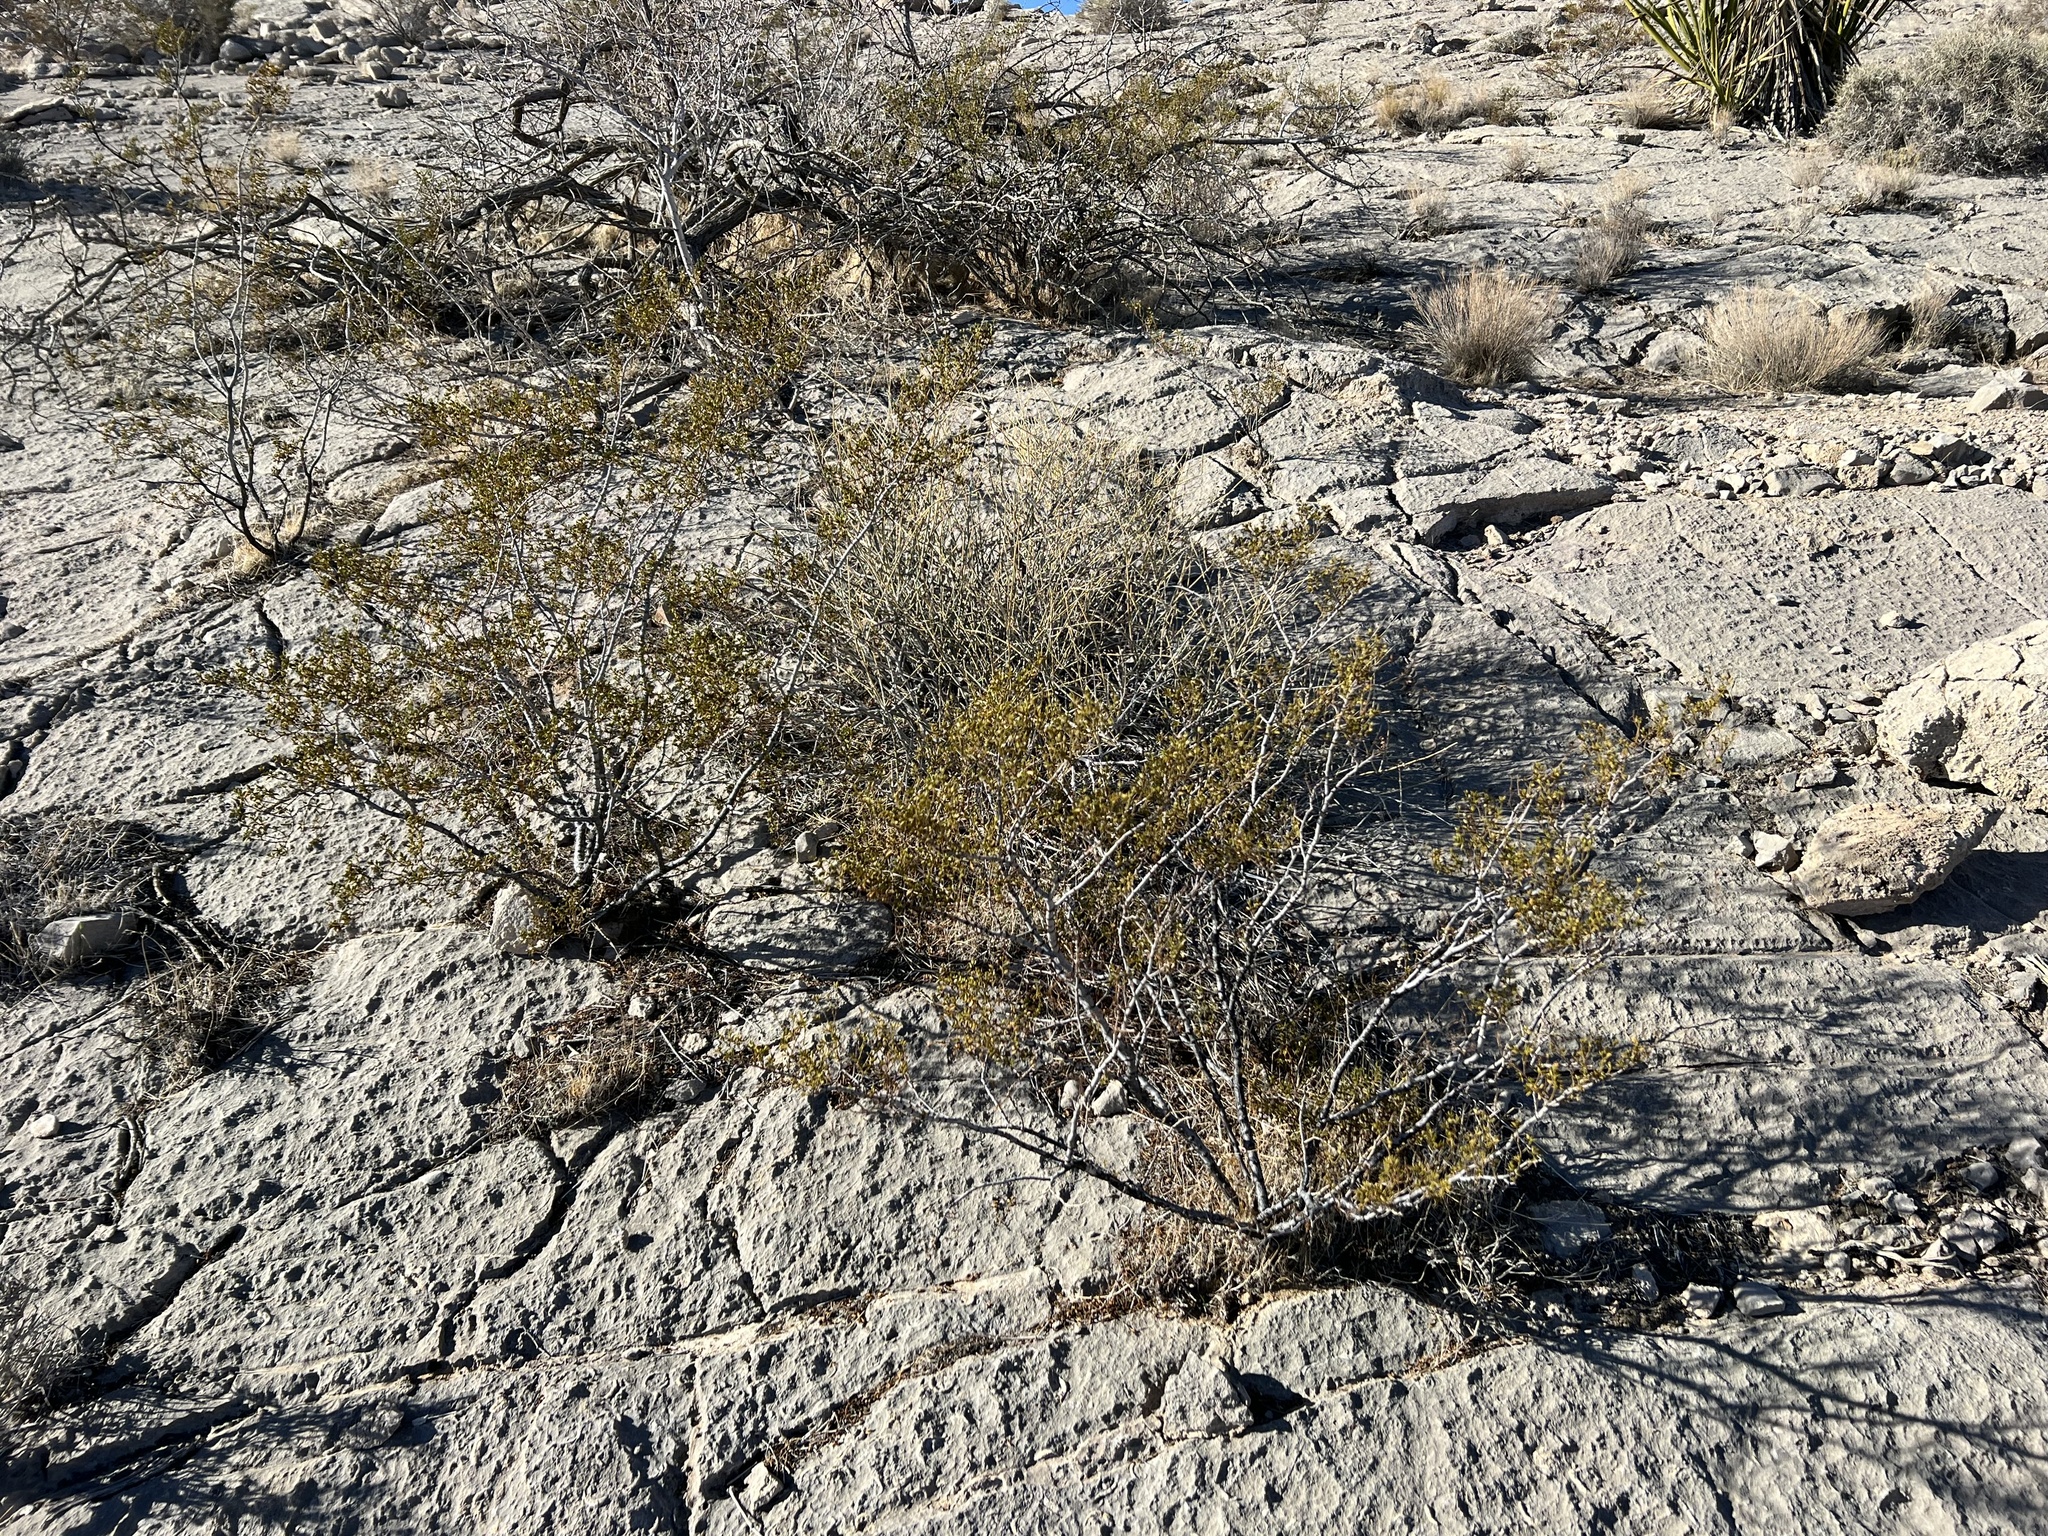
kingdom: Plantae
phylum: Tracheophyta
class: Magnoliopsida
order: Zygophyllales
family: Zygophyllaceae
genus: Larrea
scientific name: Larrea tridentata
